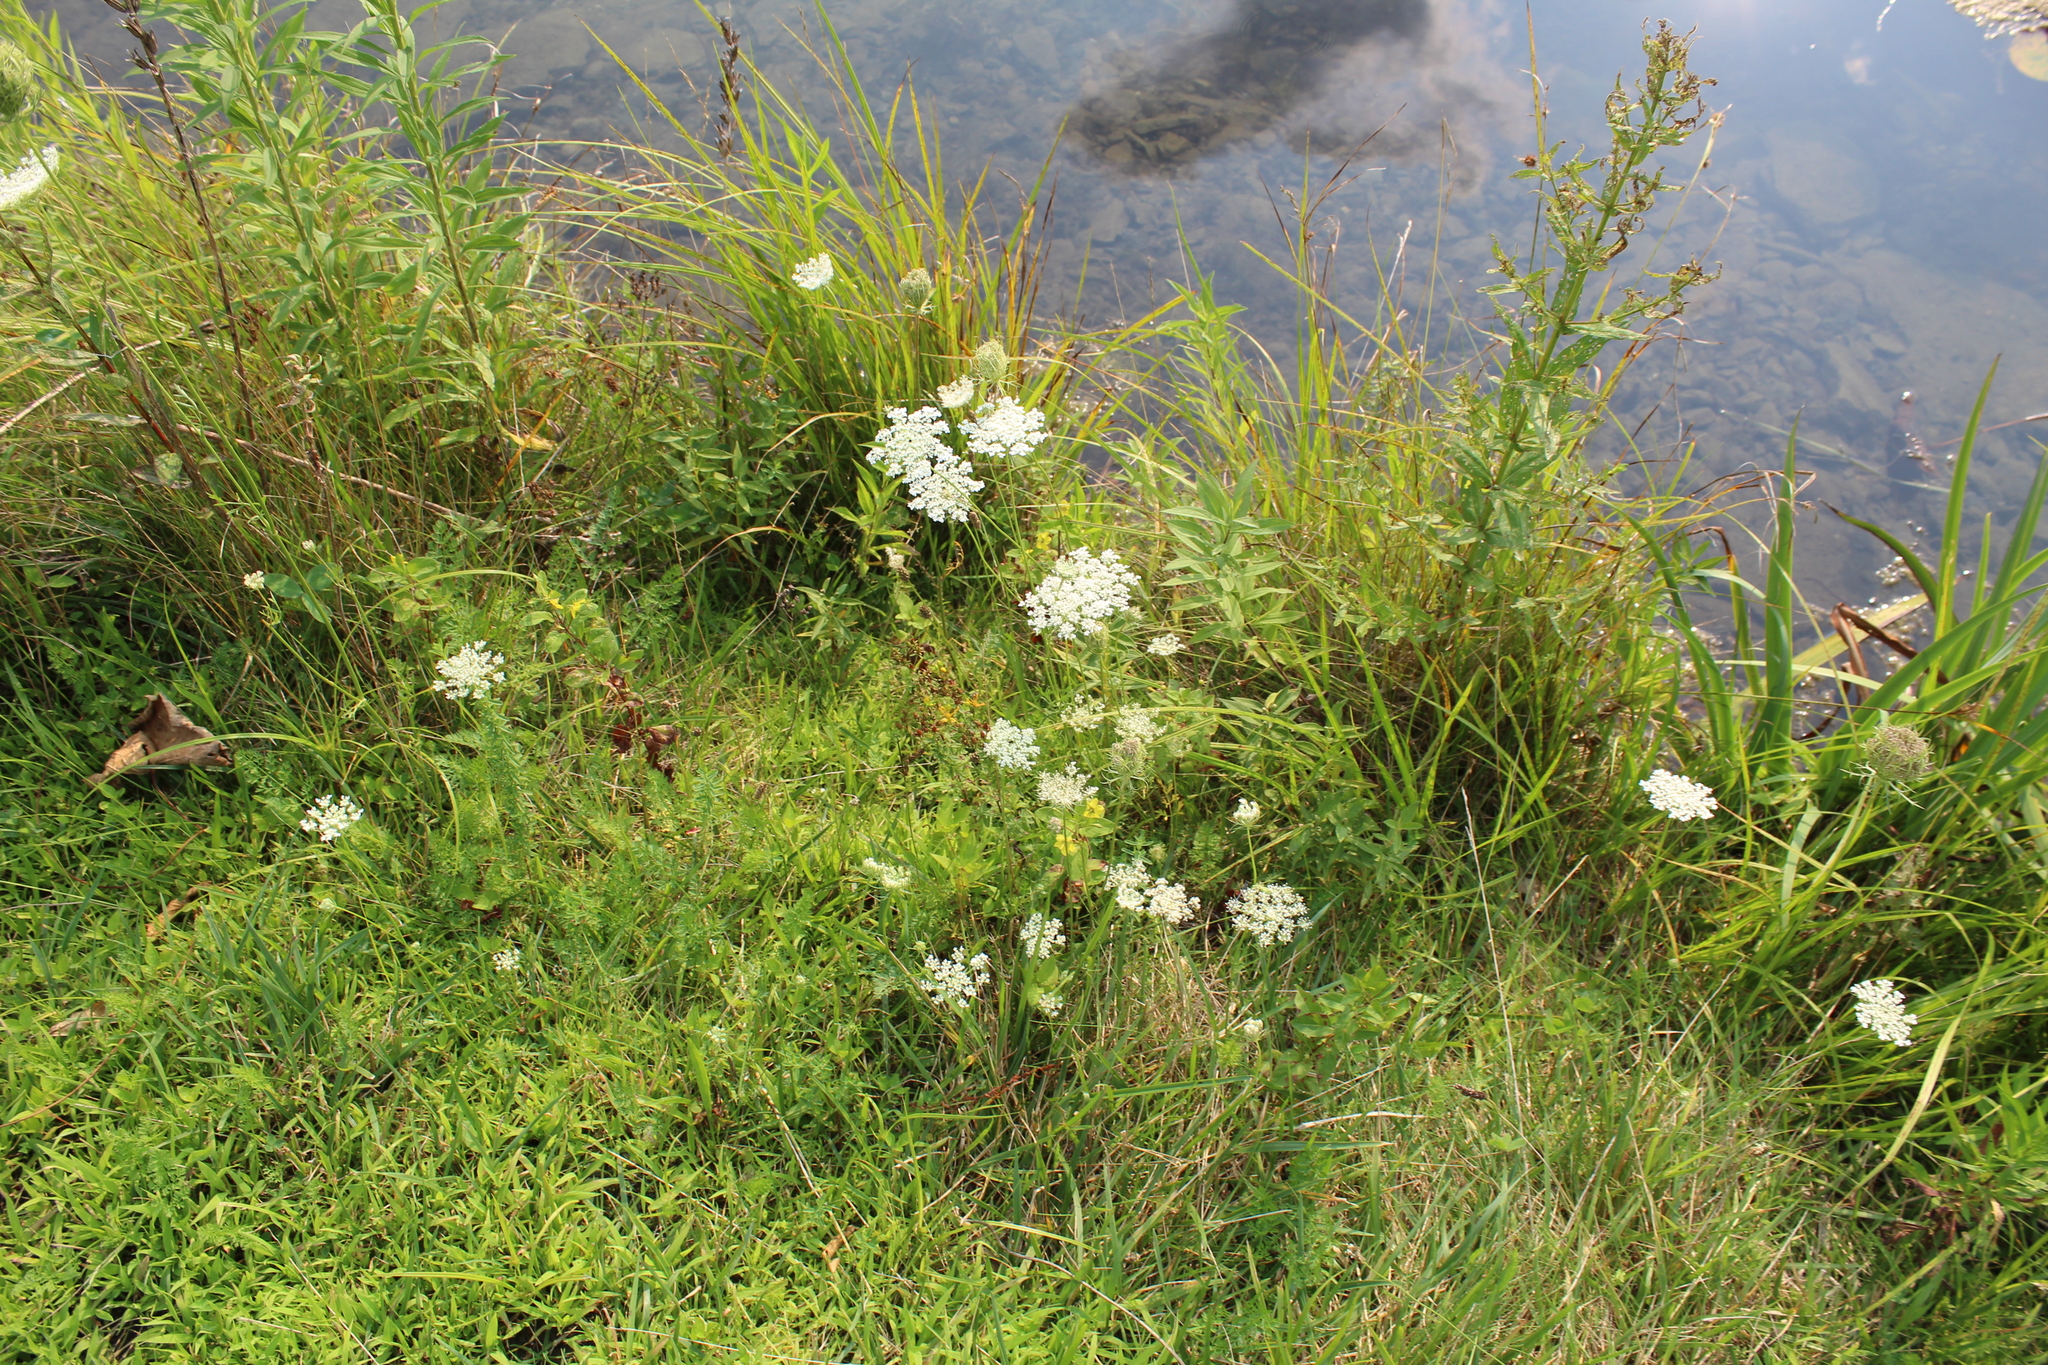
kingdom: Plantae
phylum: Tracheophyta
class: Magnoliopsida
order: Apiales
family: Apiaceae
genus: Daucus
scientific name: Daucus carota
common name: Wild carrot
